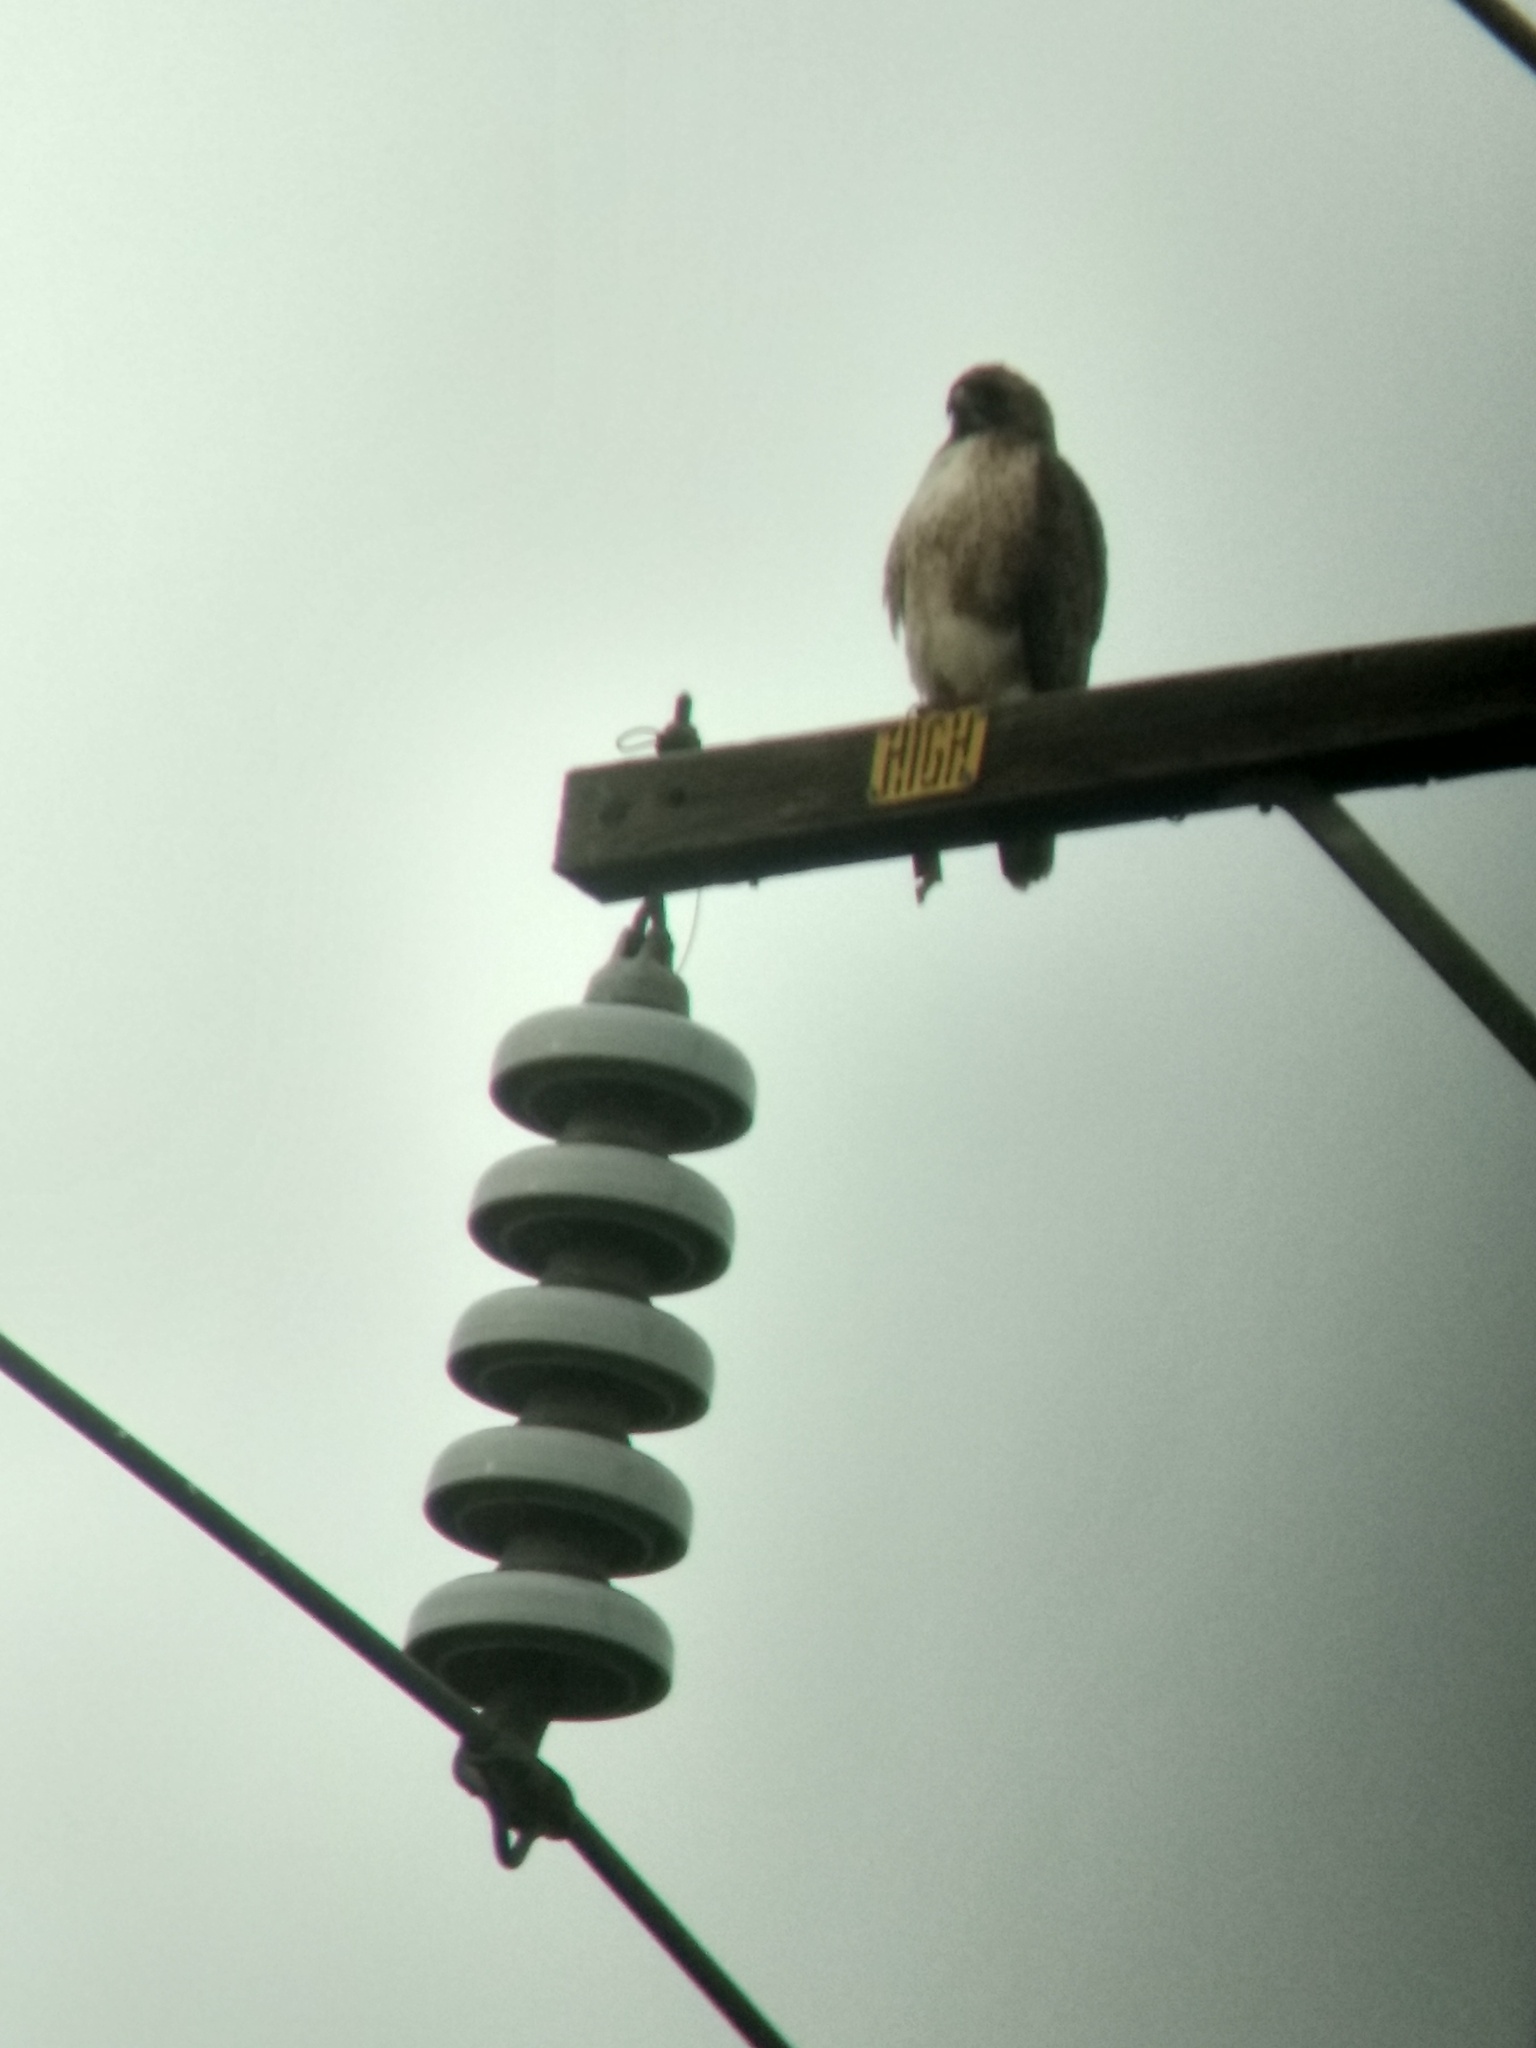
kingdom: Animalia
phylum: Chordata
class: Aves
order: Accipitriformes
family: Accipitridae
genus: Buteo
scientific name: Buteo jamaicensis
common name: Red-tailed hawk
